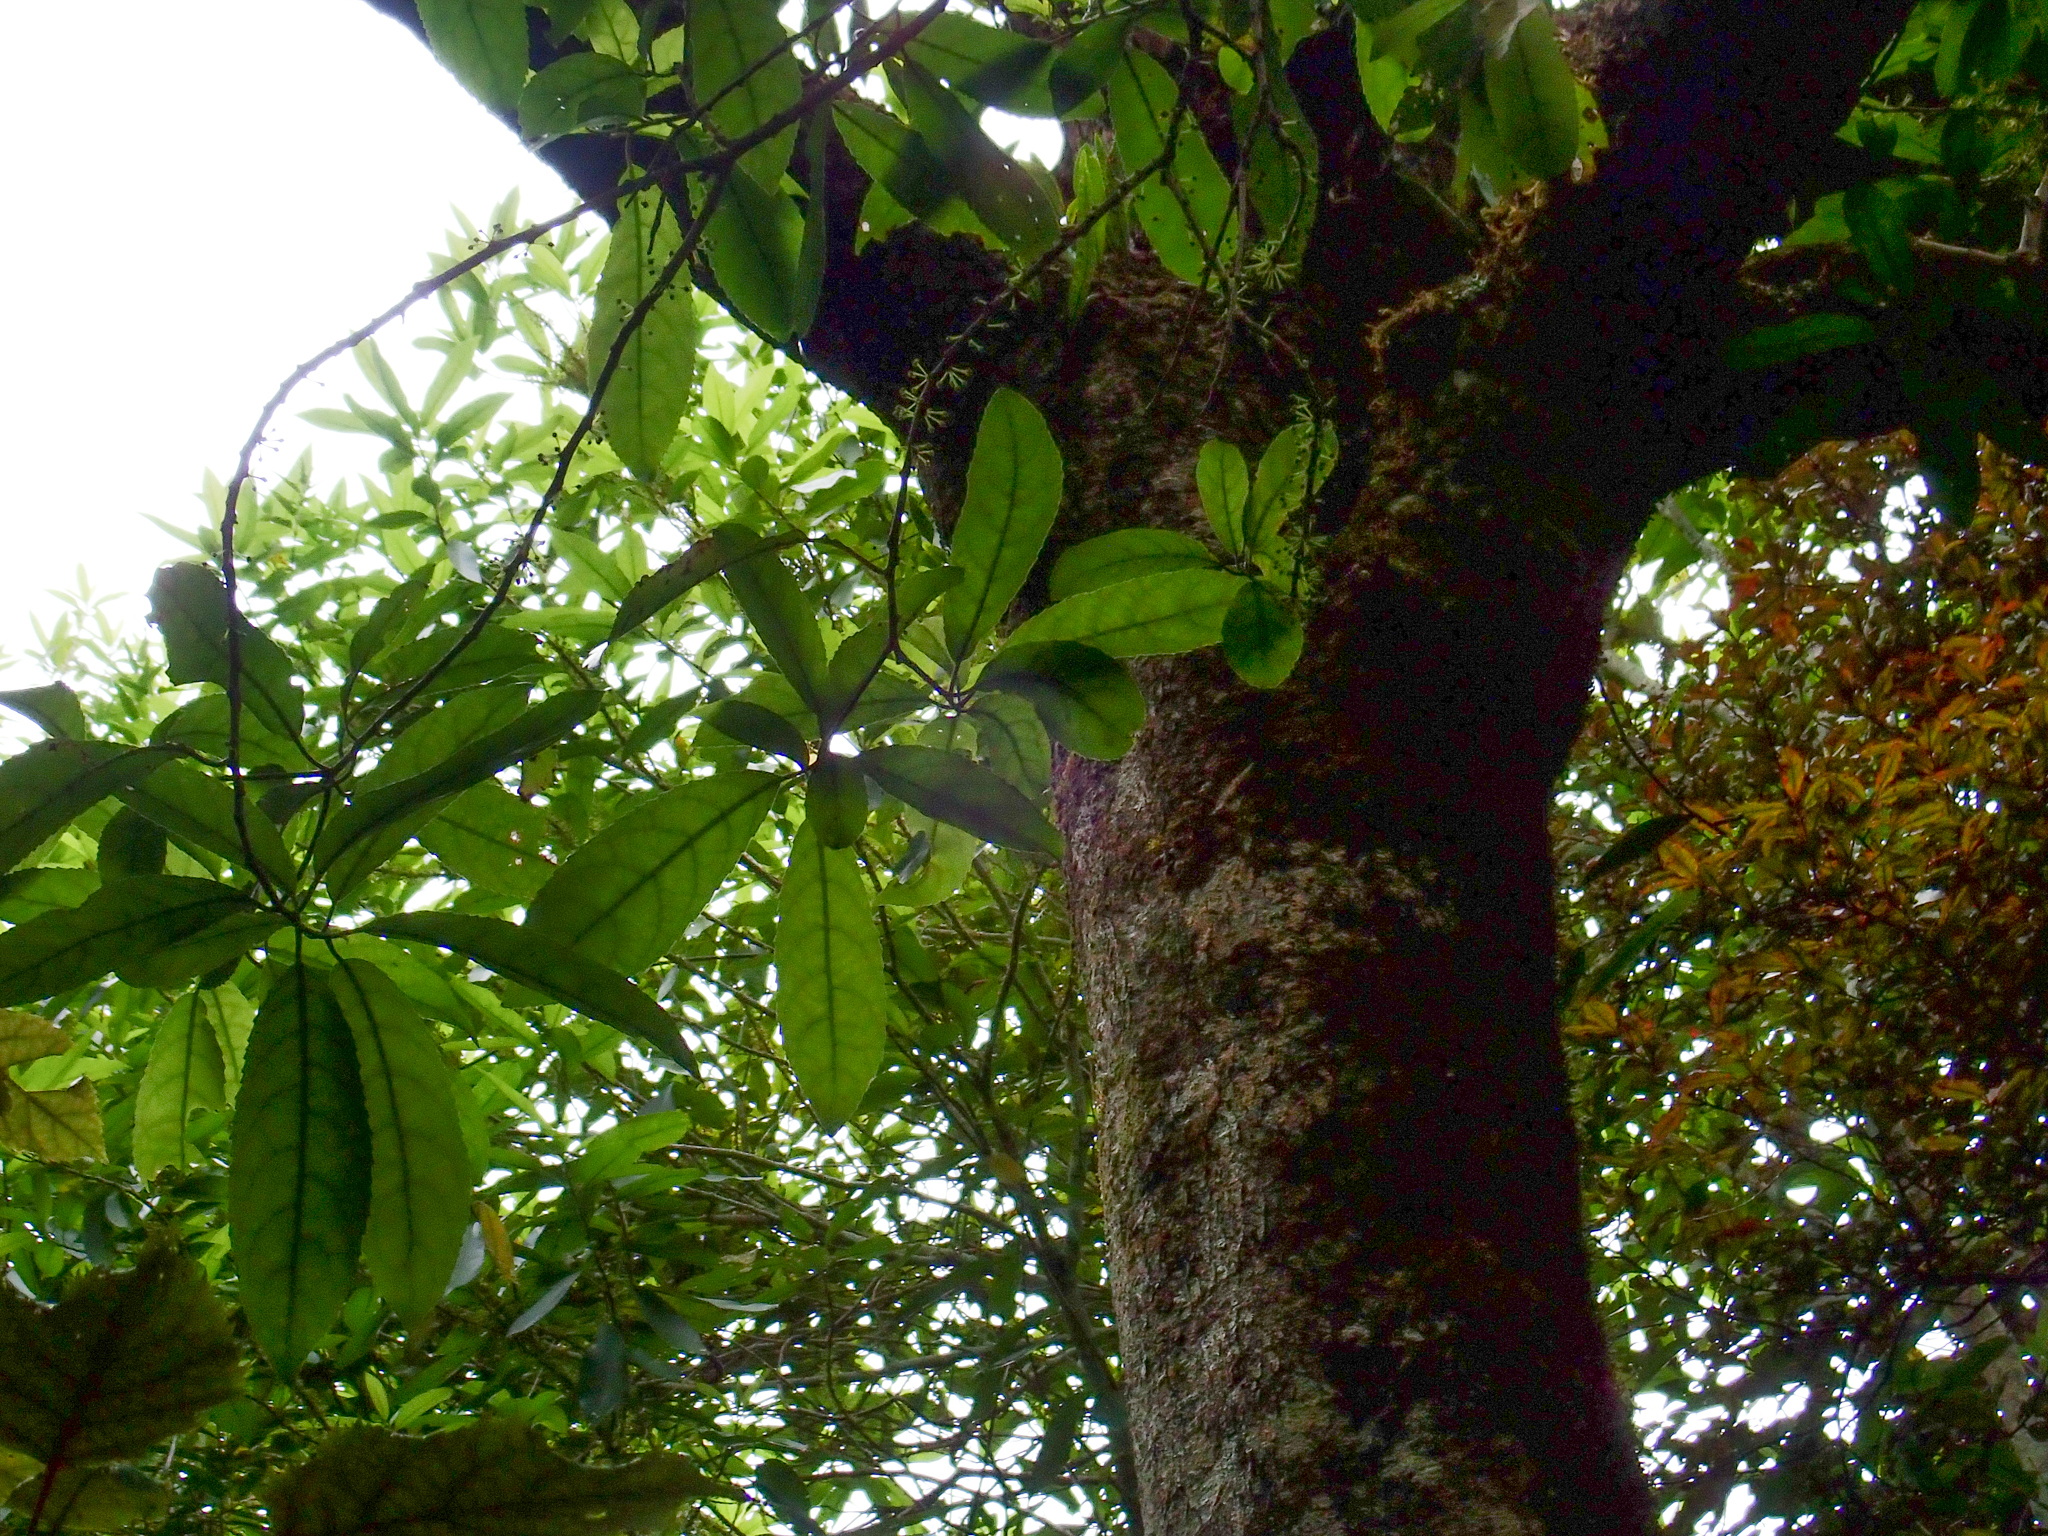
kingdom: Plantae
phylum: Tracheophyta
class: Magnoliopsida
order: Malpighiales
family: Violaceae
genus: Melicytus
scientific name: Melicytus ramiflorus
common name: Mahoe
